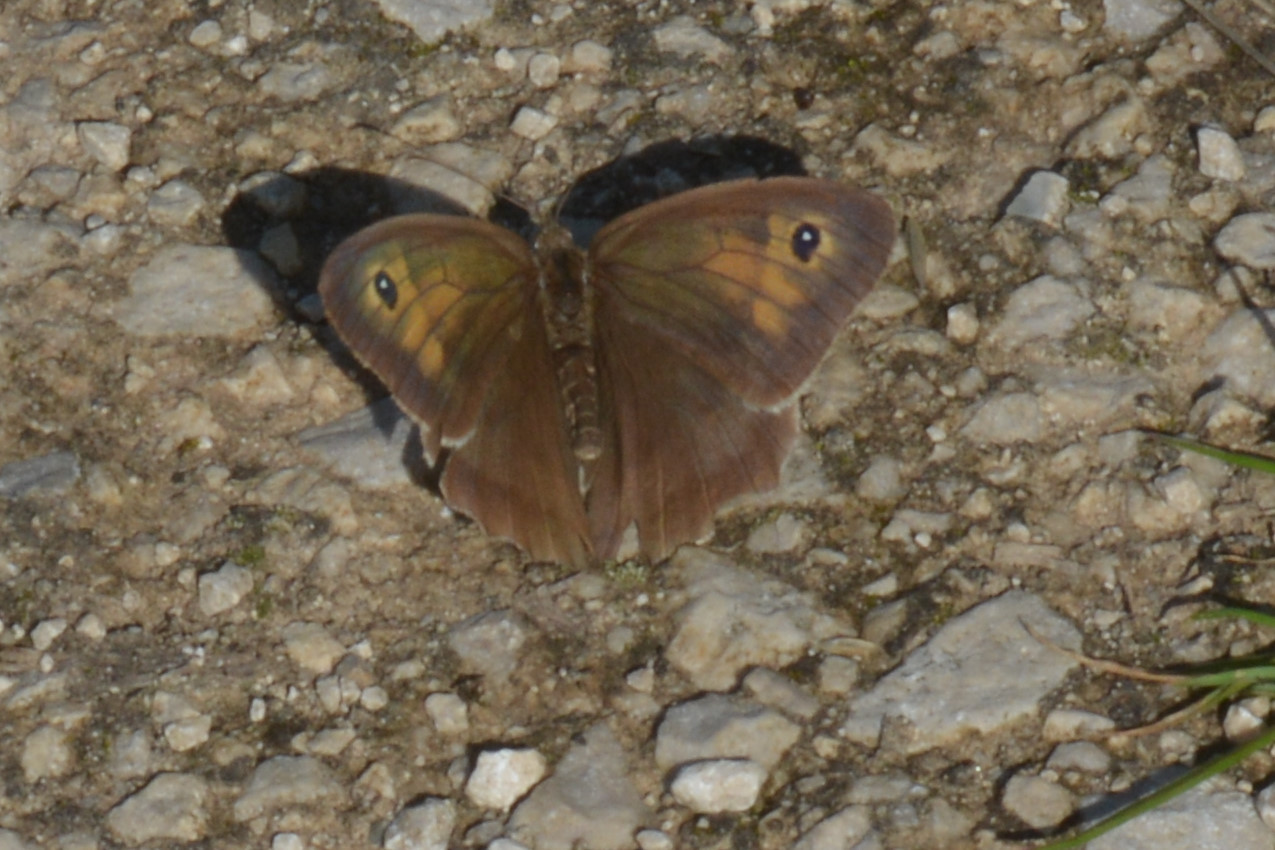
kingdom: Animalia
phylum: Arthropoda
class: Insecta
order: Lepidoptera
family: Nymphalidae
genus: Maniola
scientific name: Maniola jurtina
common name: Meadow brown
